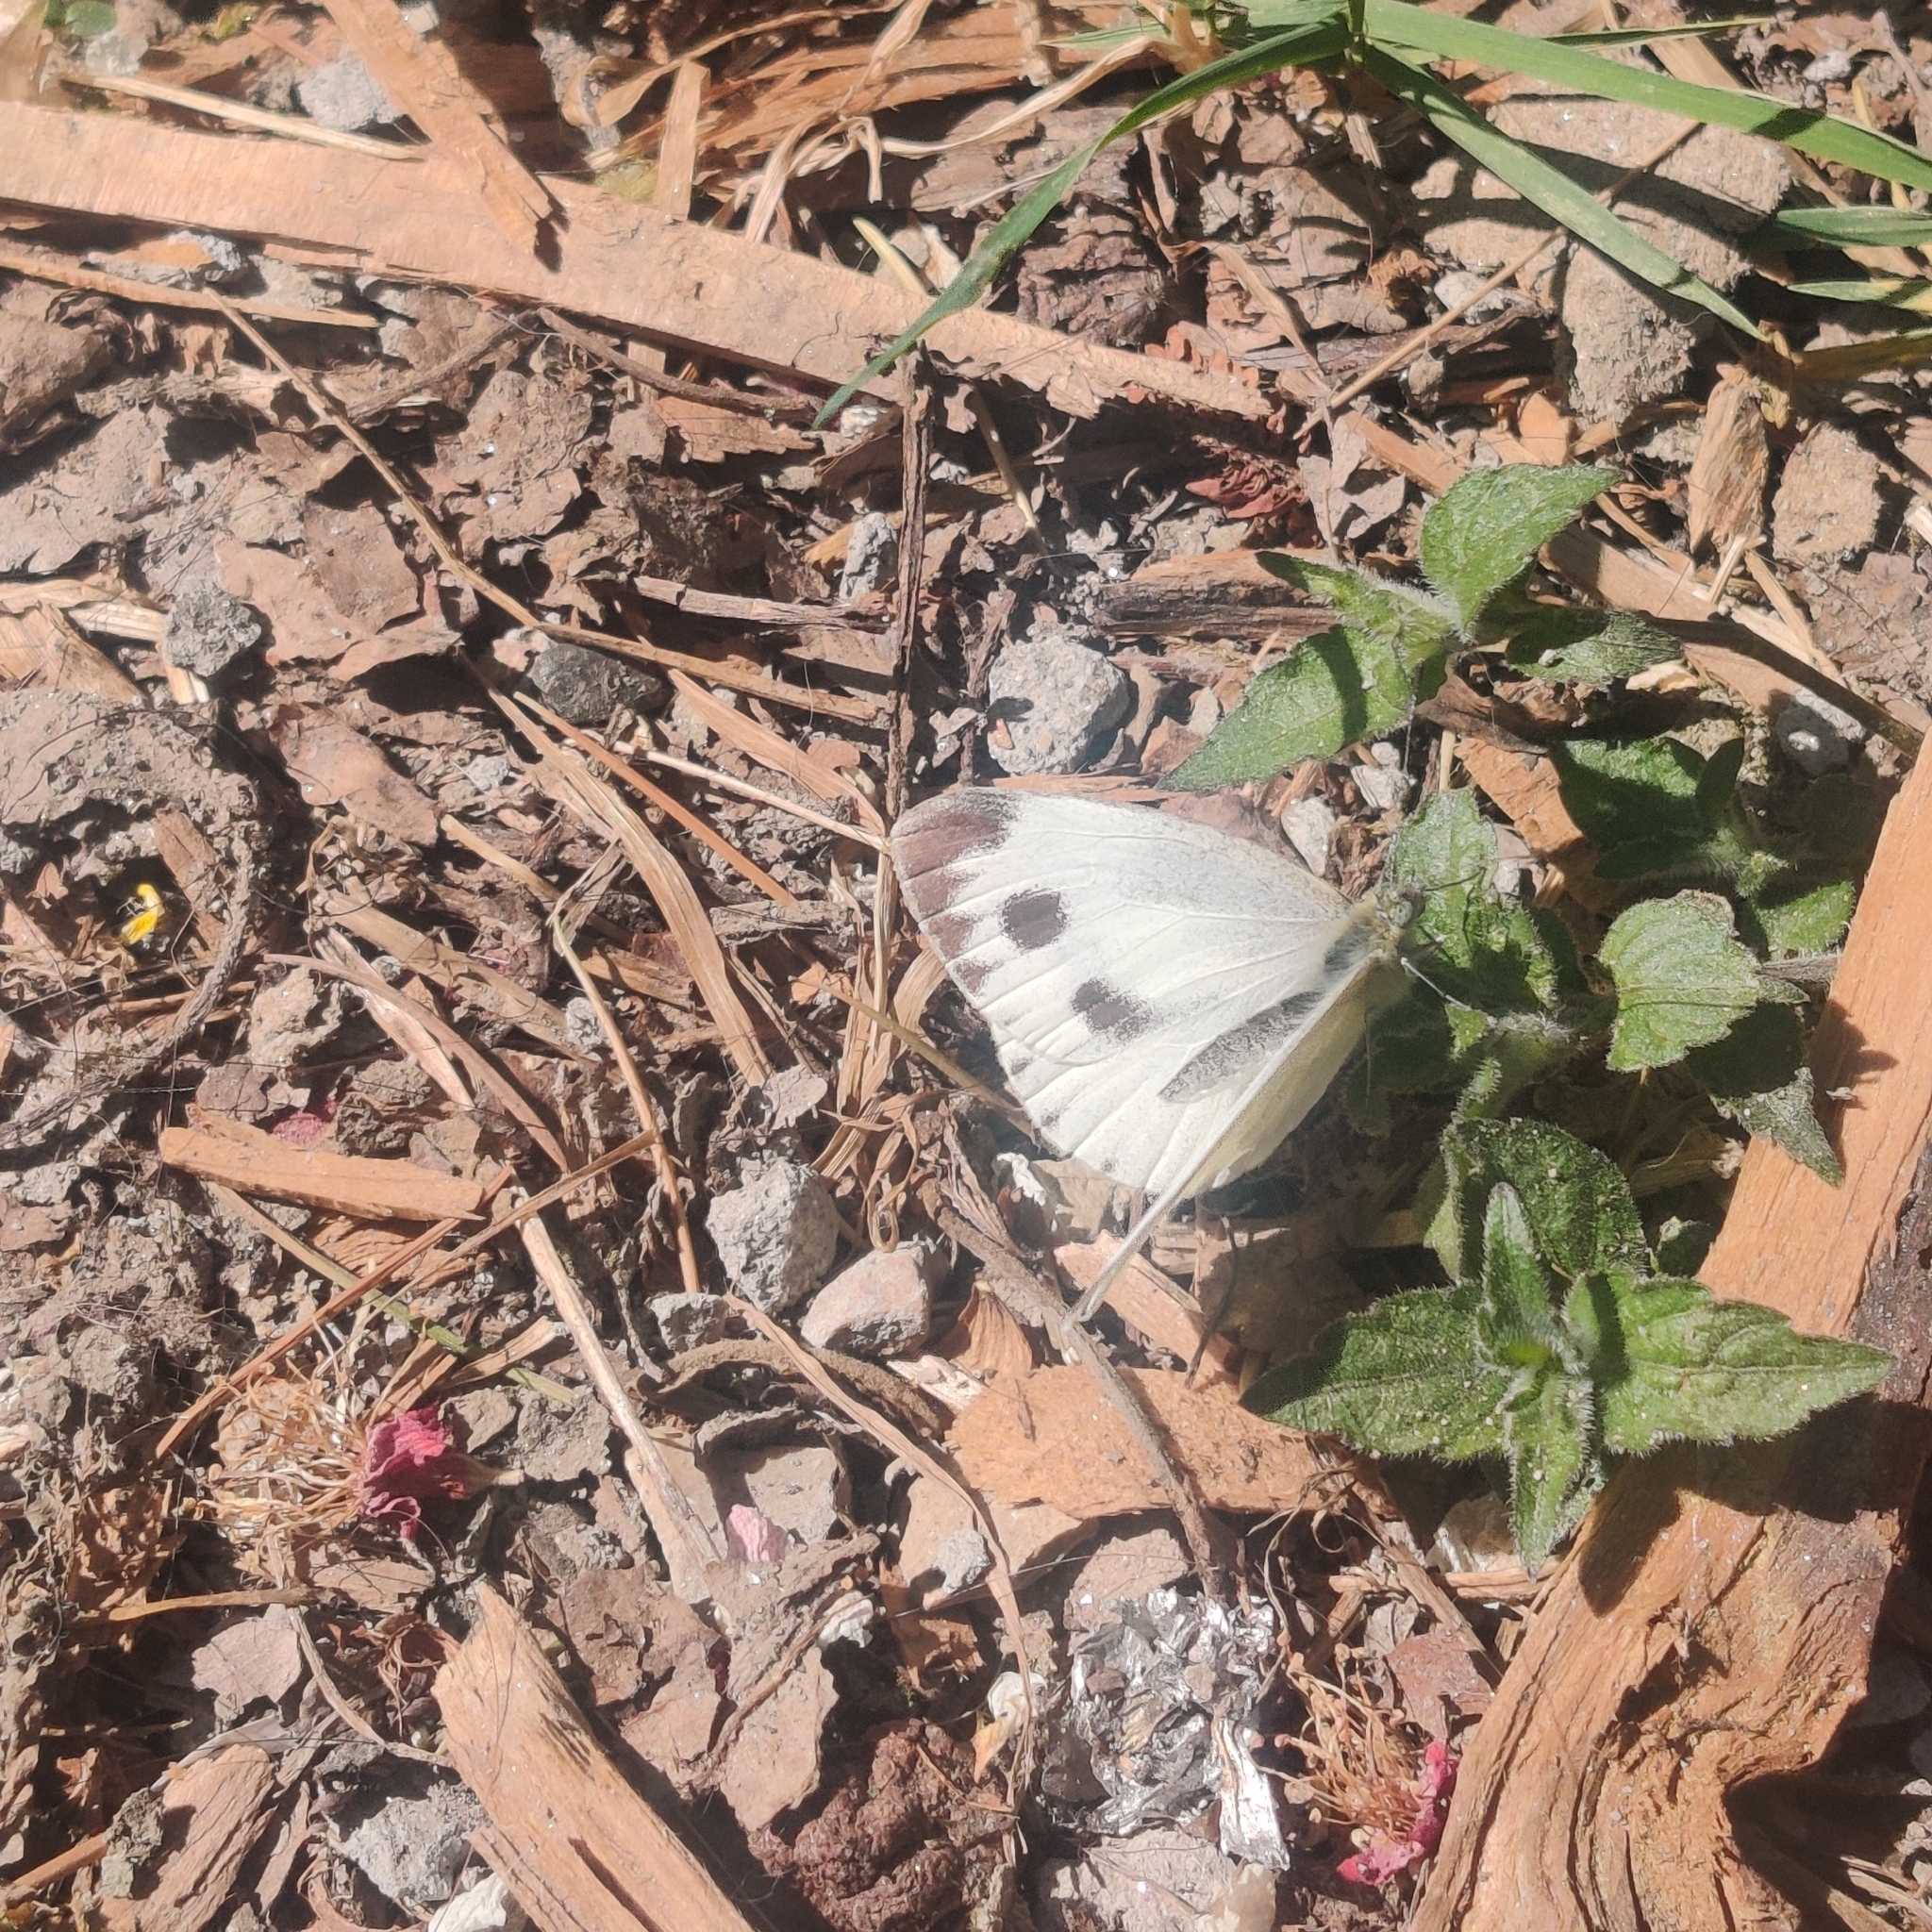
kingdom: Animalia
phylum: Arthropoda
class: Insecta
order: Lepidoptera
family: Pieridae
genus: Pieris
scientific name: Pieris canidia
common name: Indian cabbage white
